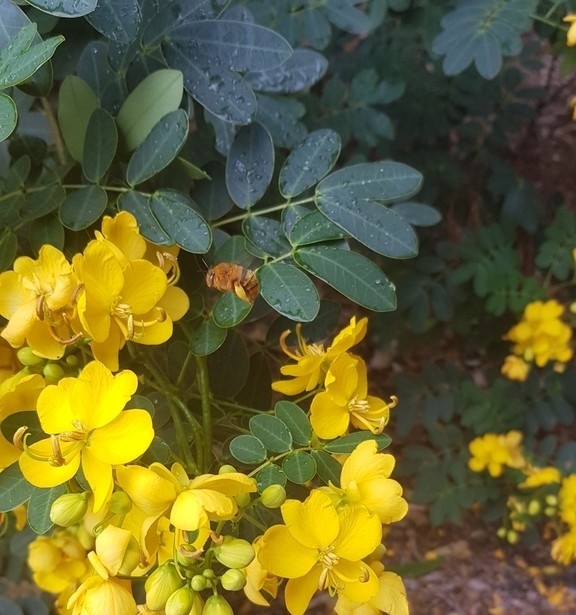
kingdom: Animalia
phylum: Arthropoda
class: Insecta
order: Hymenoptera
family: Apidae
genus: Amegilla
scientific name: Amegilla bombiformis
